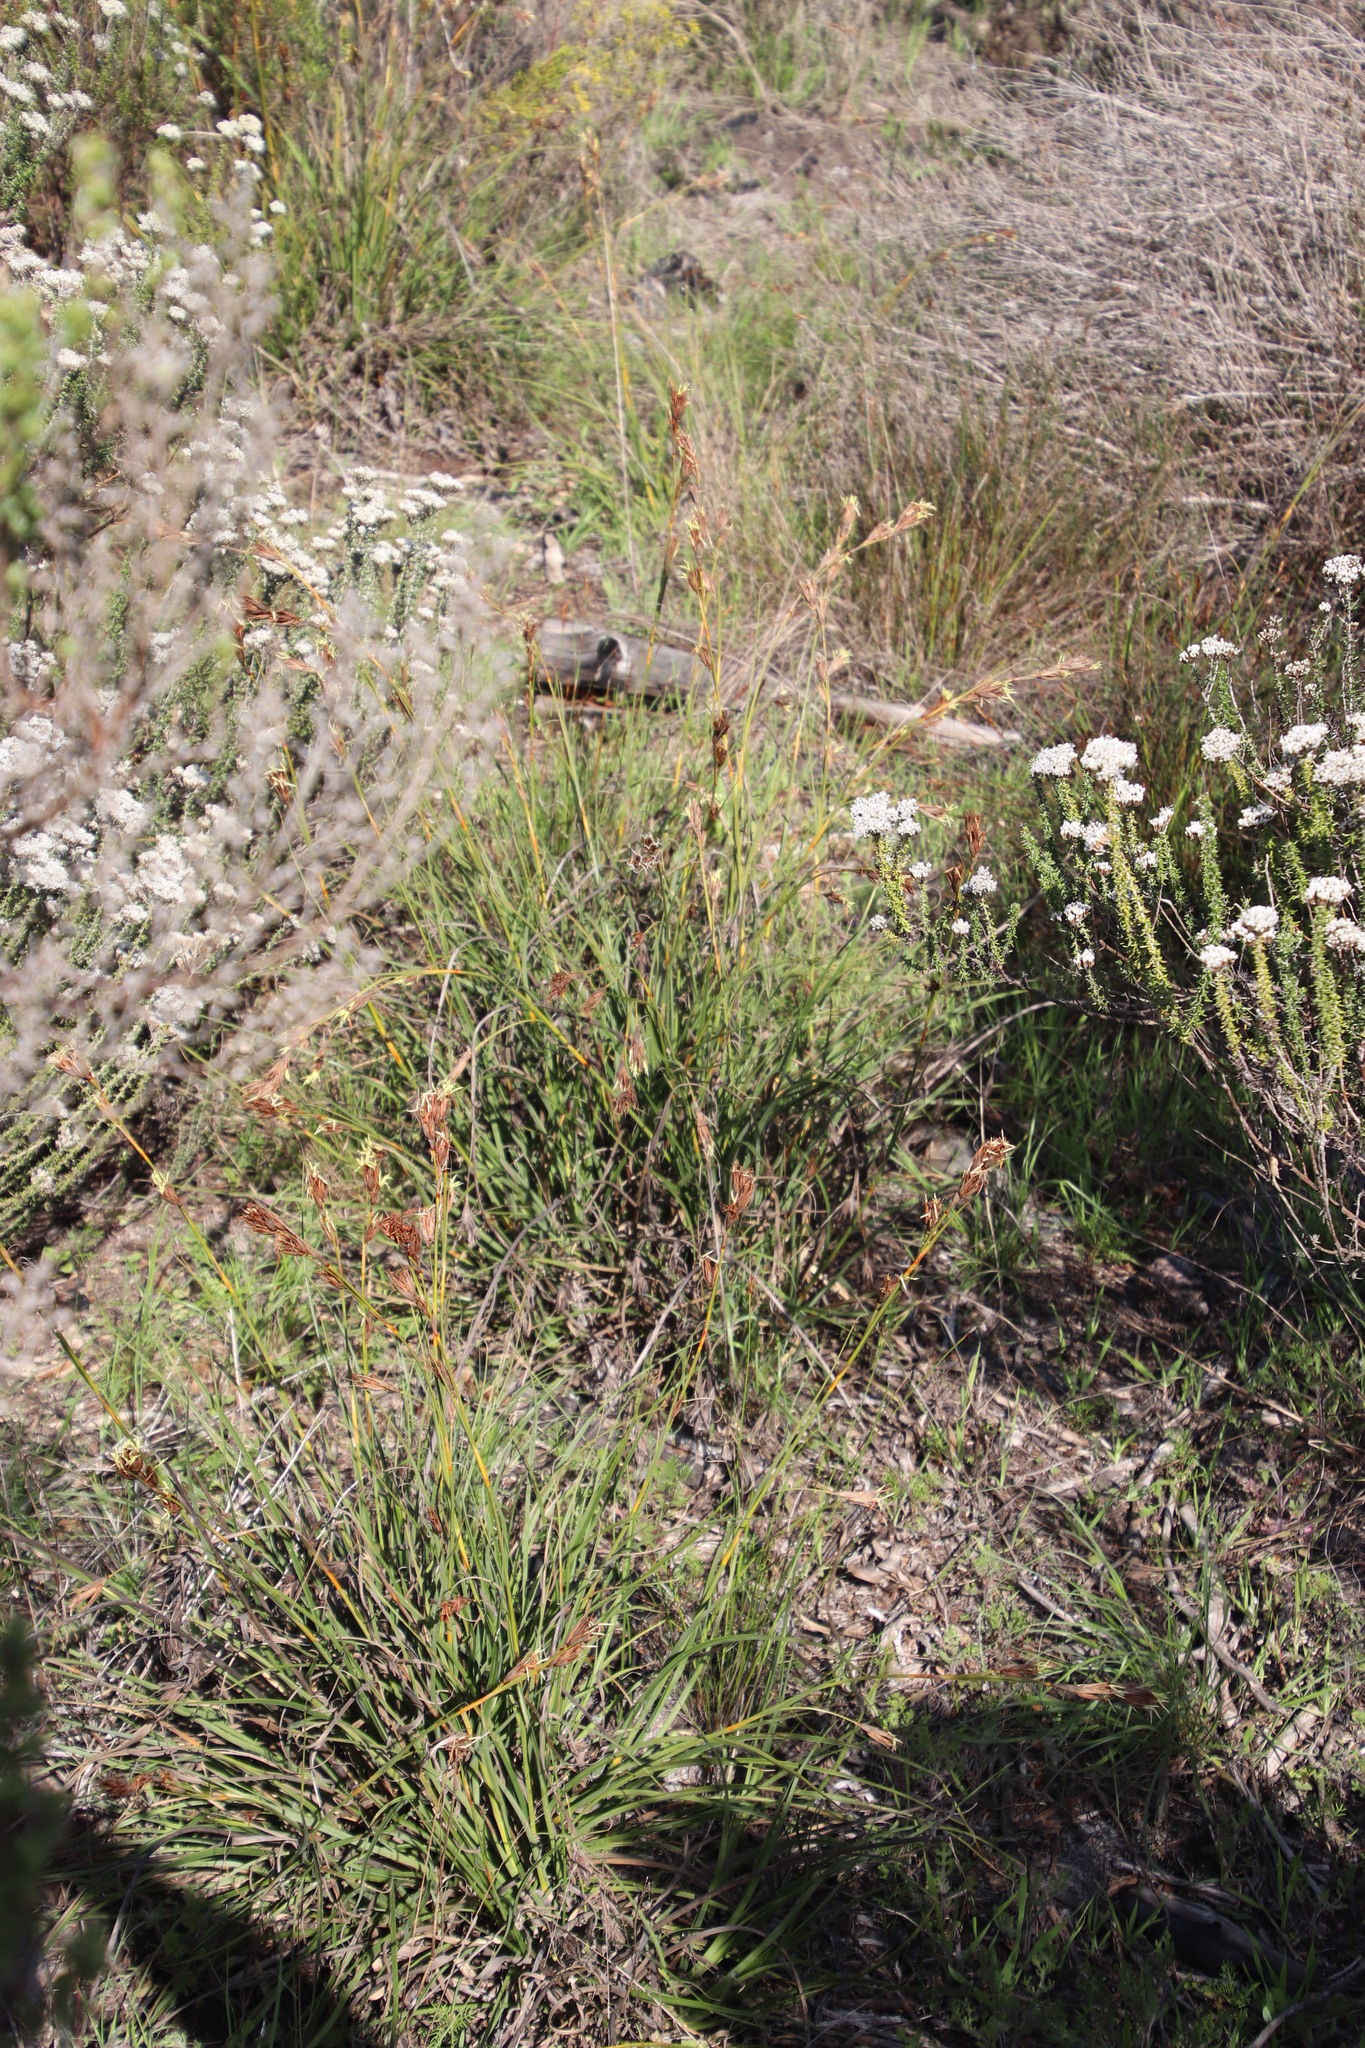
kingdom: Plantae
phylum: Tracheophyta
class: Liliopsida
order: Poales
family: Cyperaceae
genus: Tetraria
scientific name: Tetraria eximia
